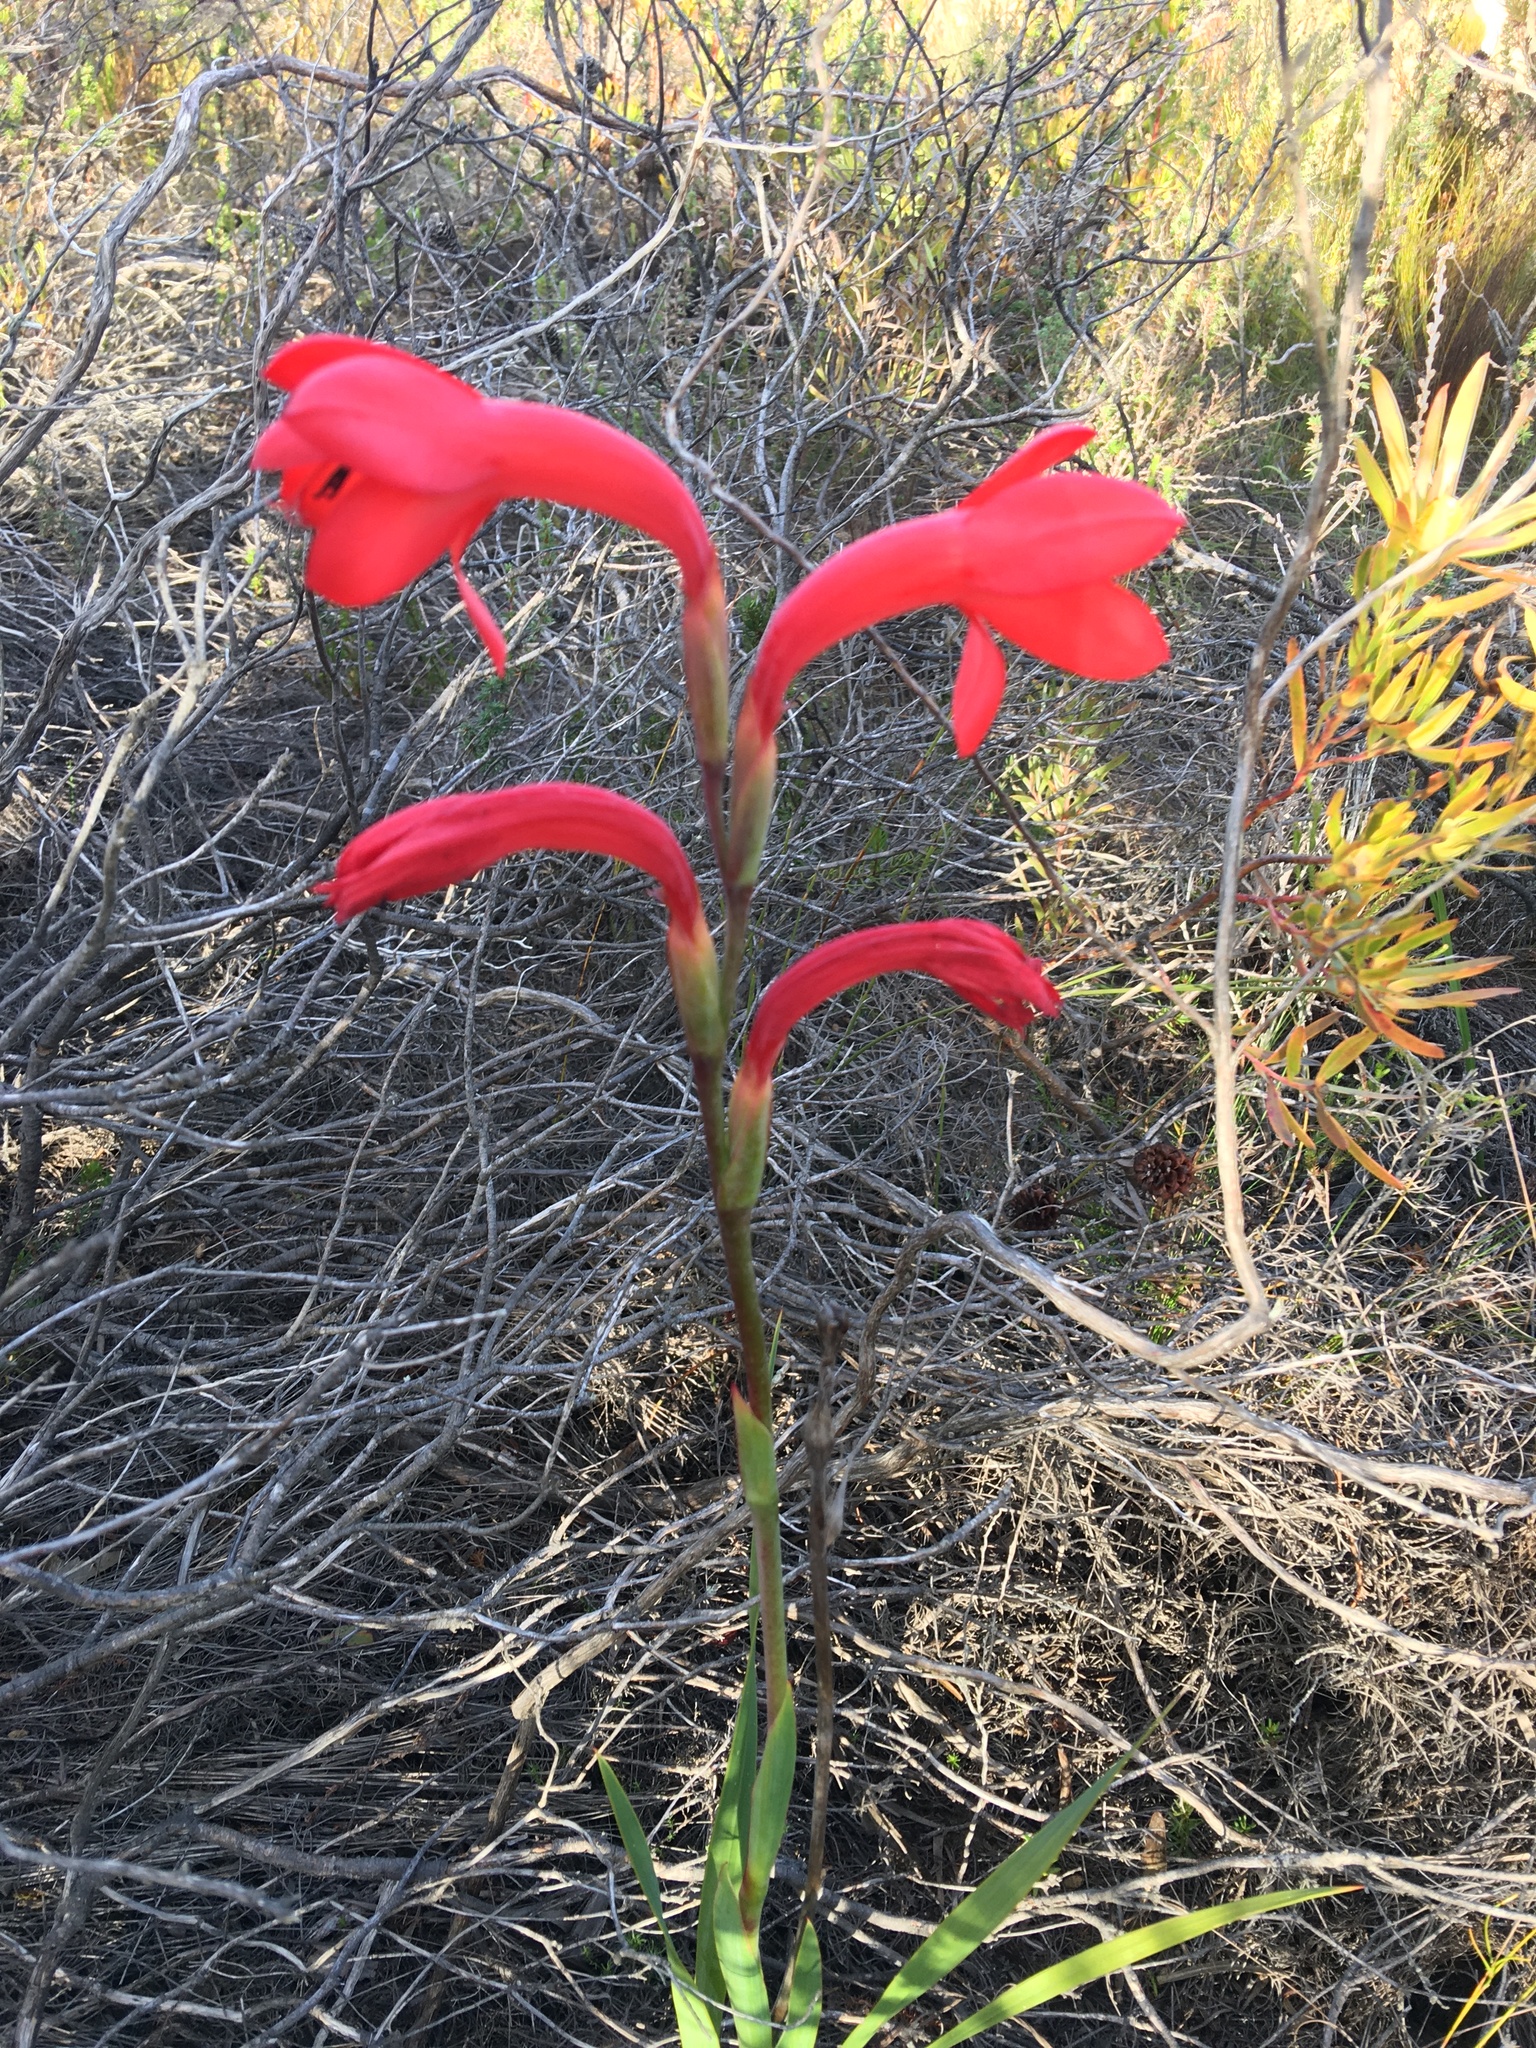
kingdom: Plantae
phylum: Tracheophyta
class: Liliopsida
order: Asparagales
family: Iridaceae
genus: Watsonia
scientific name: Watsonia coccinea
